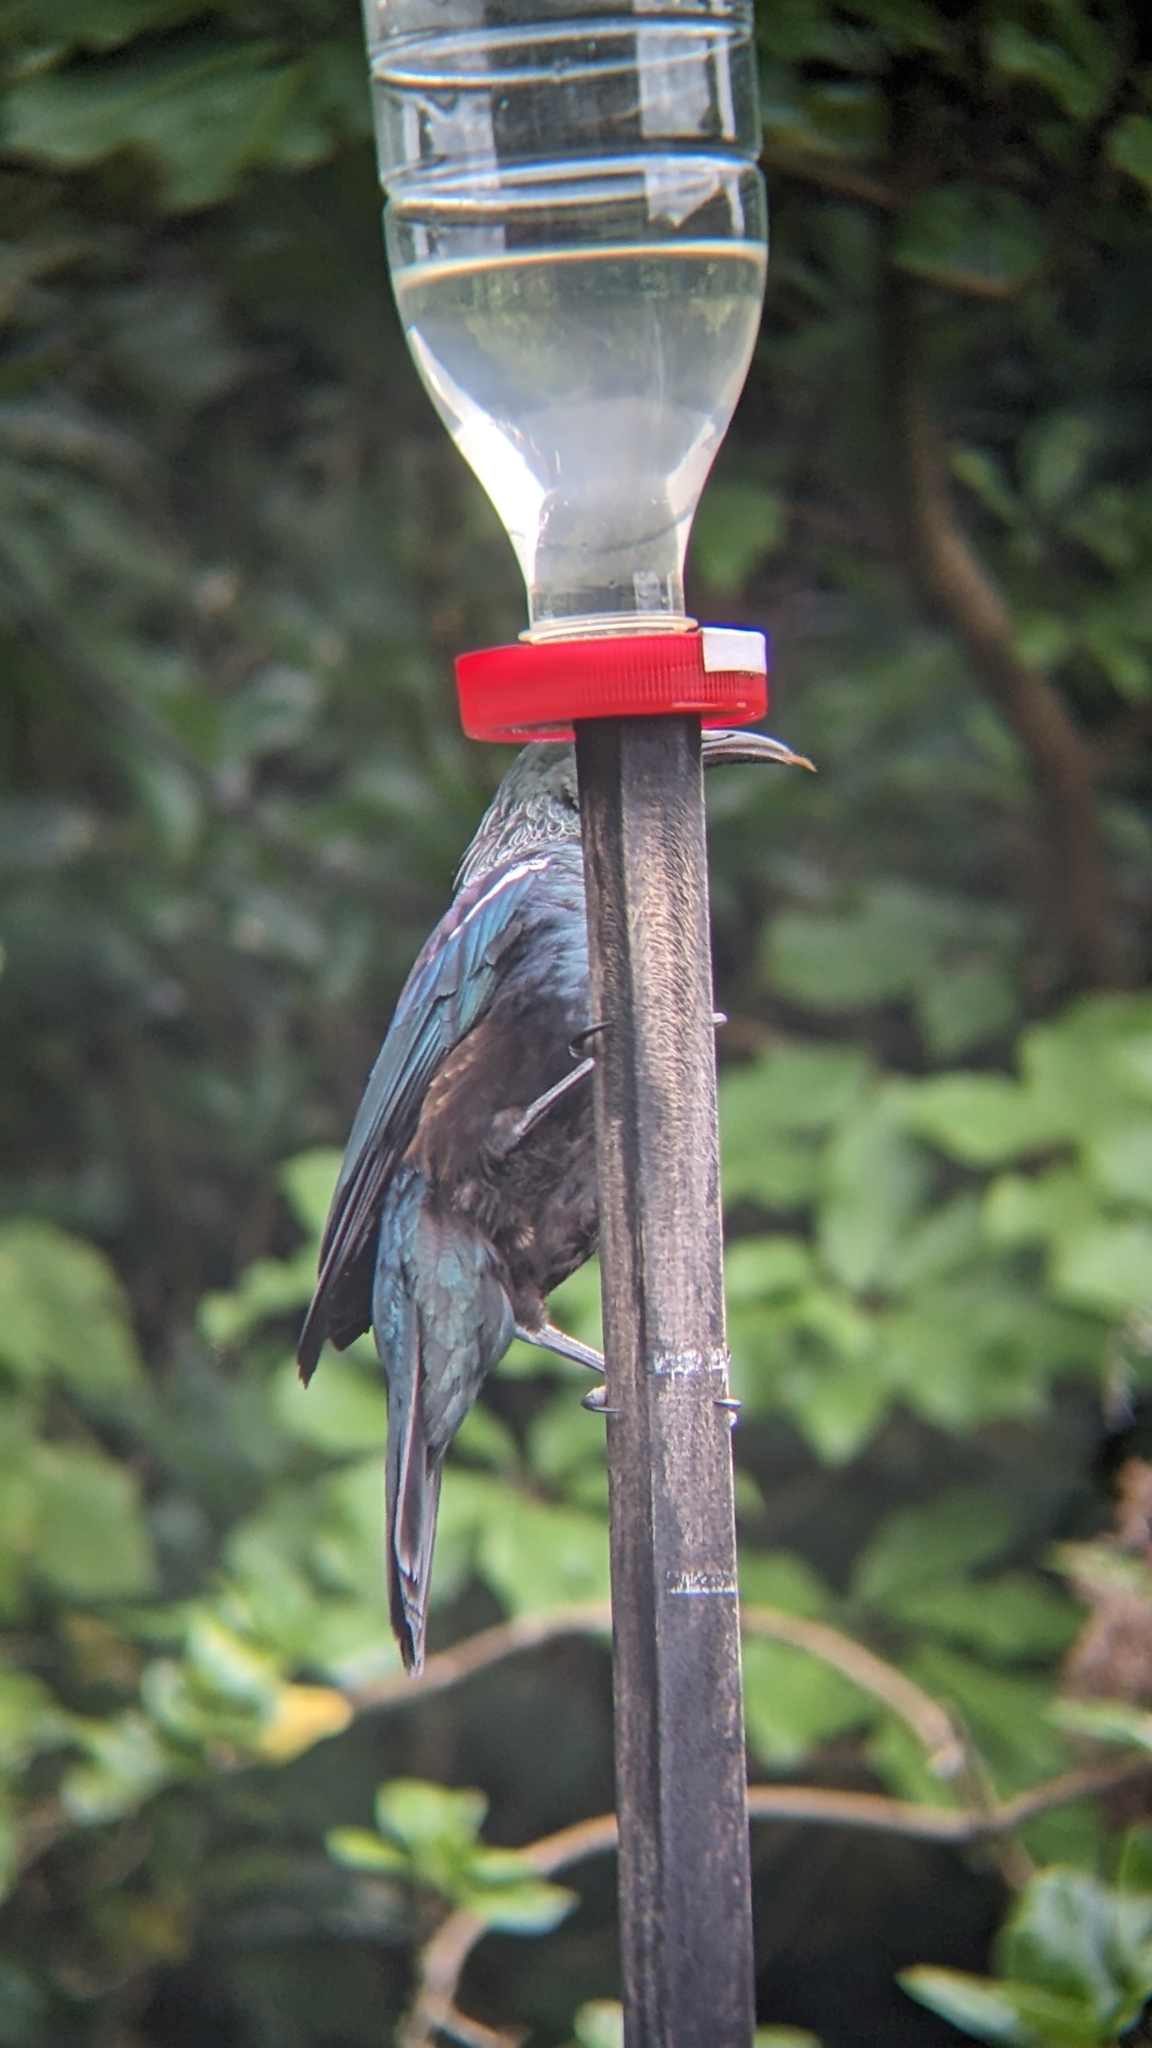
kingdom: Animalia
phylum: Chordata
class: Aves
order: Passeriformes
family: Meliphagidae
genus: Prosthemadera
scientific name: Prosthemadera novaeseelandiae
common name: Tui
